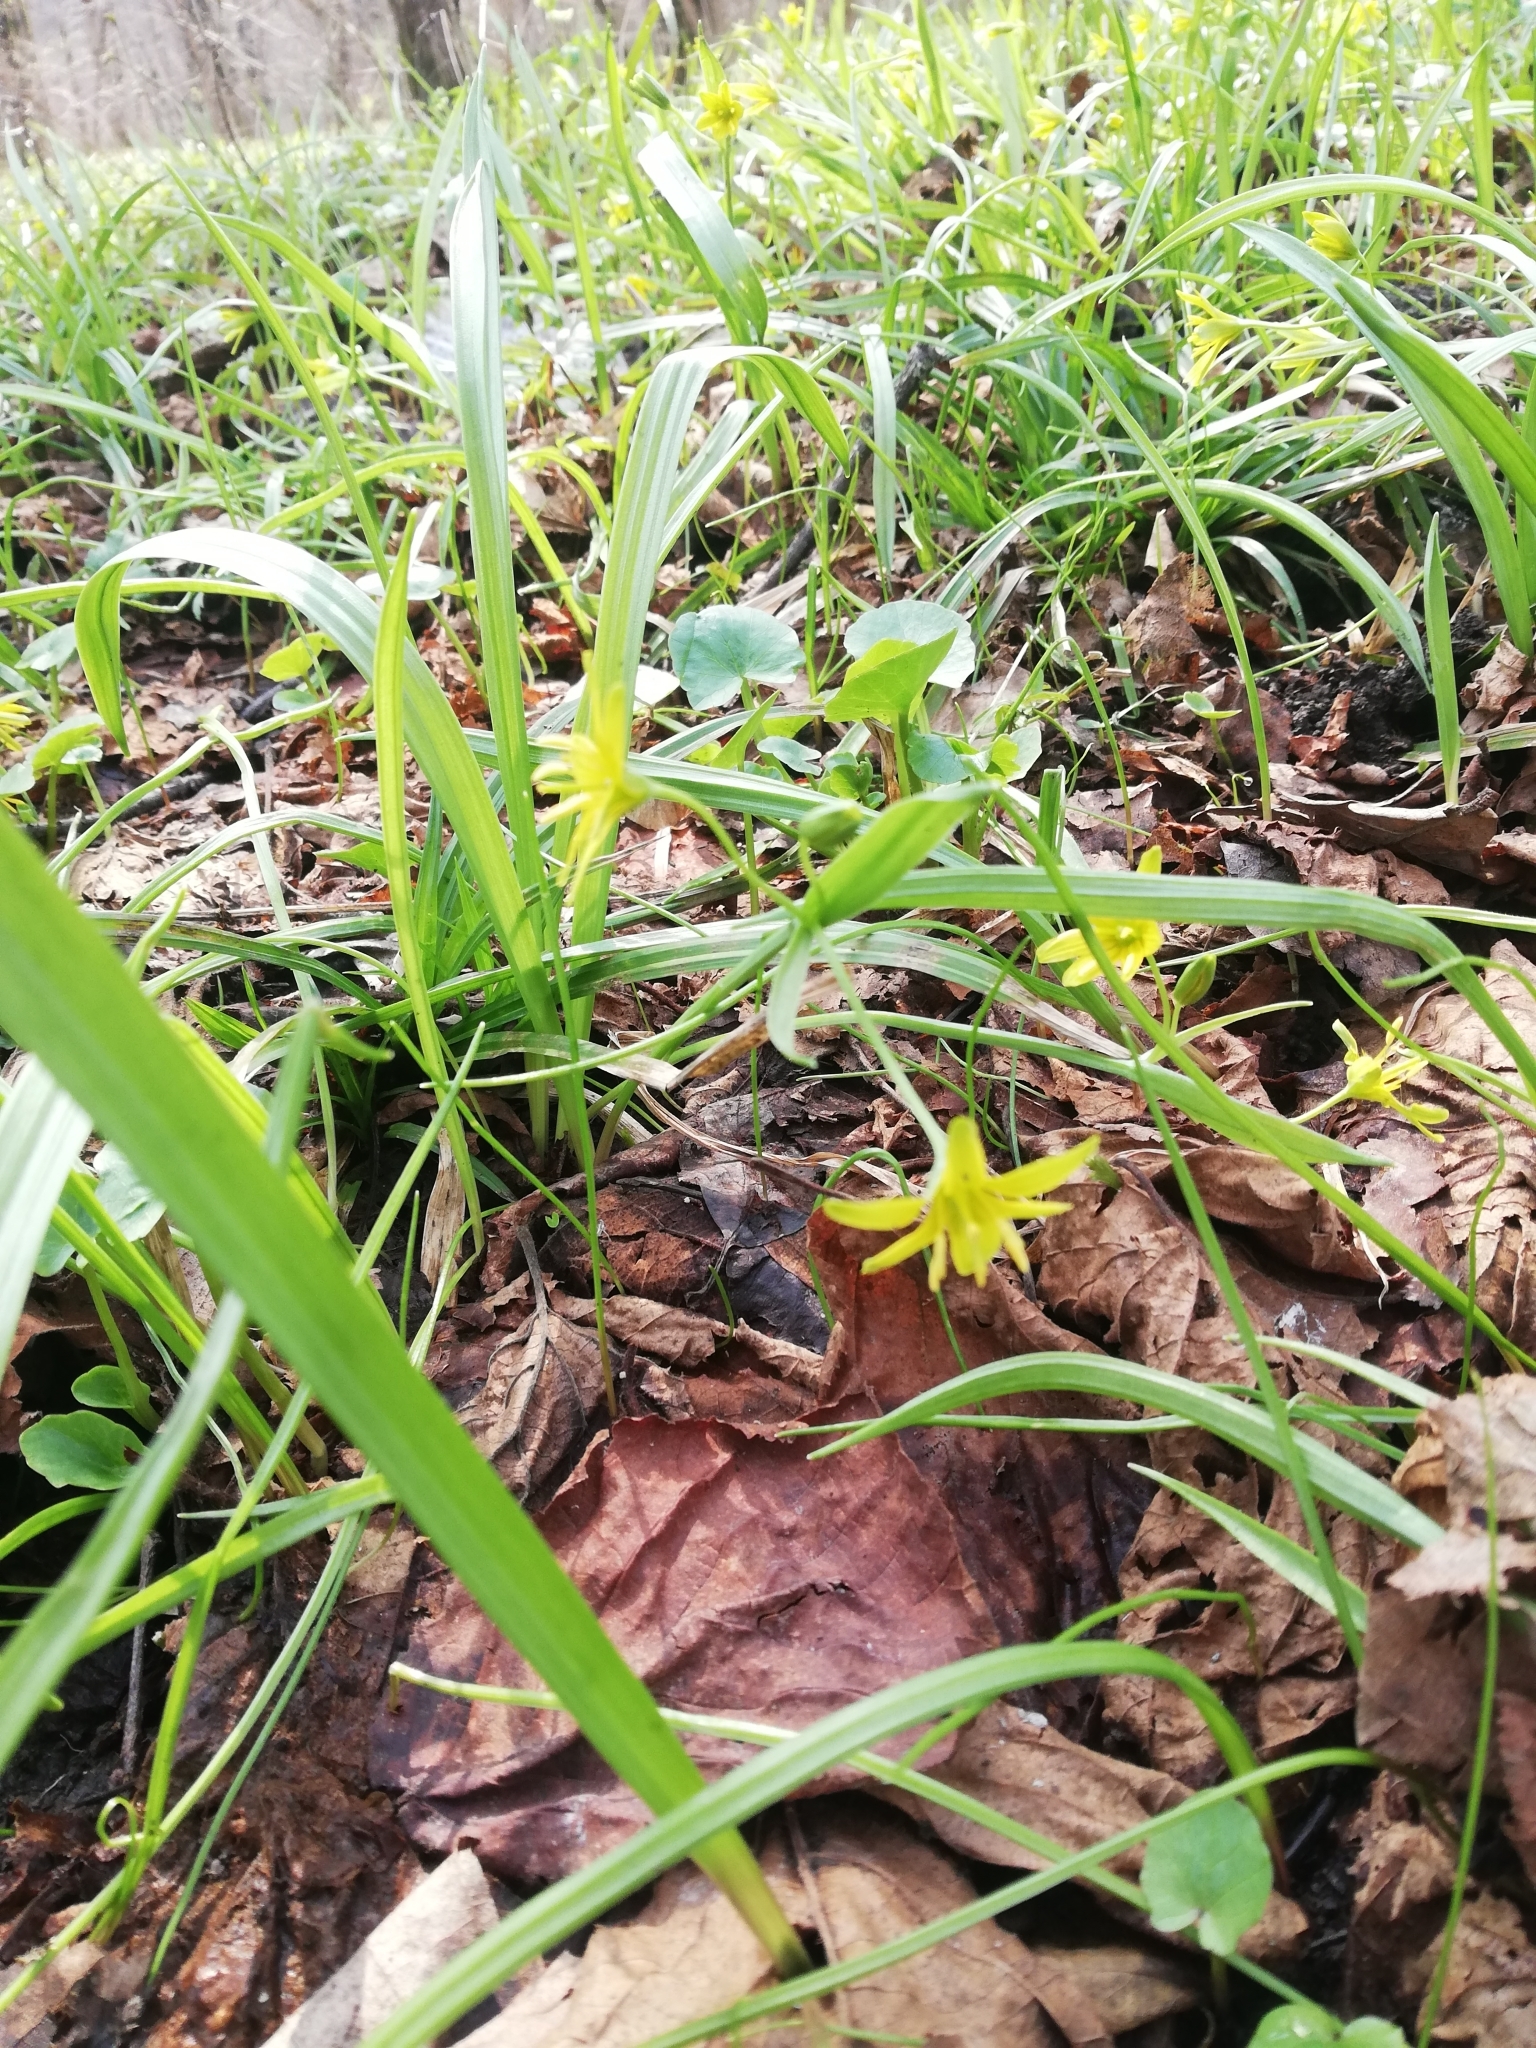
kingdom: Plantae
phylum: Tracheophyta
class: Liliopsida
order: Liliales
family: Liliaceae
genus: Gagea
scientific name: Gagea lutea
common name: Yellow star-of-bethlehem
